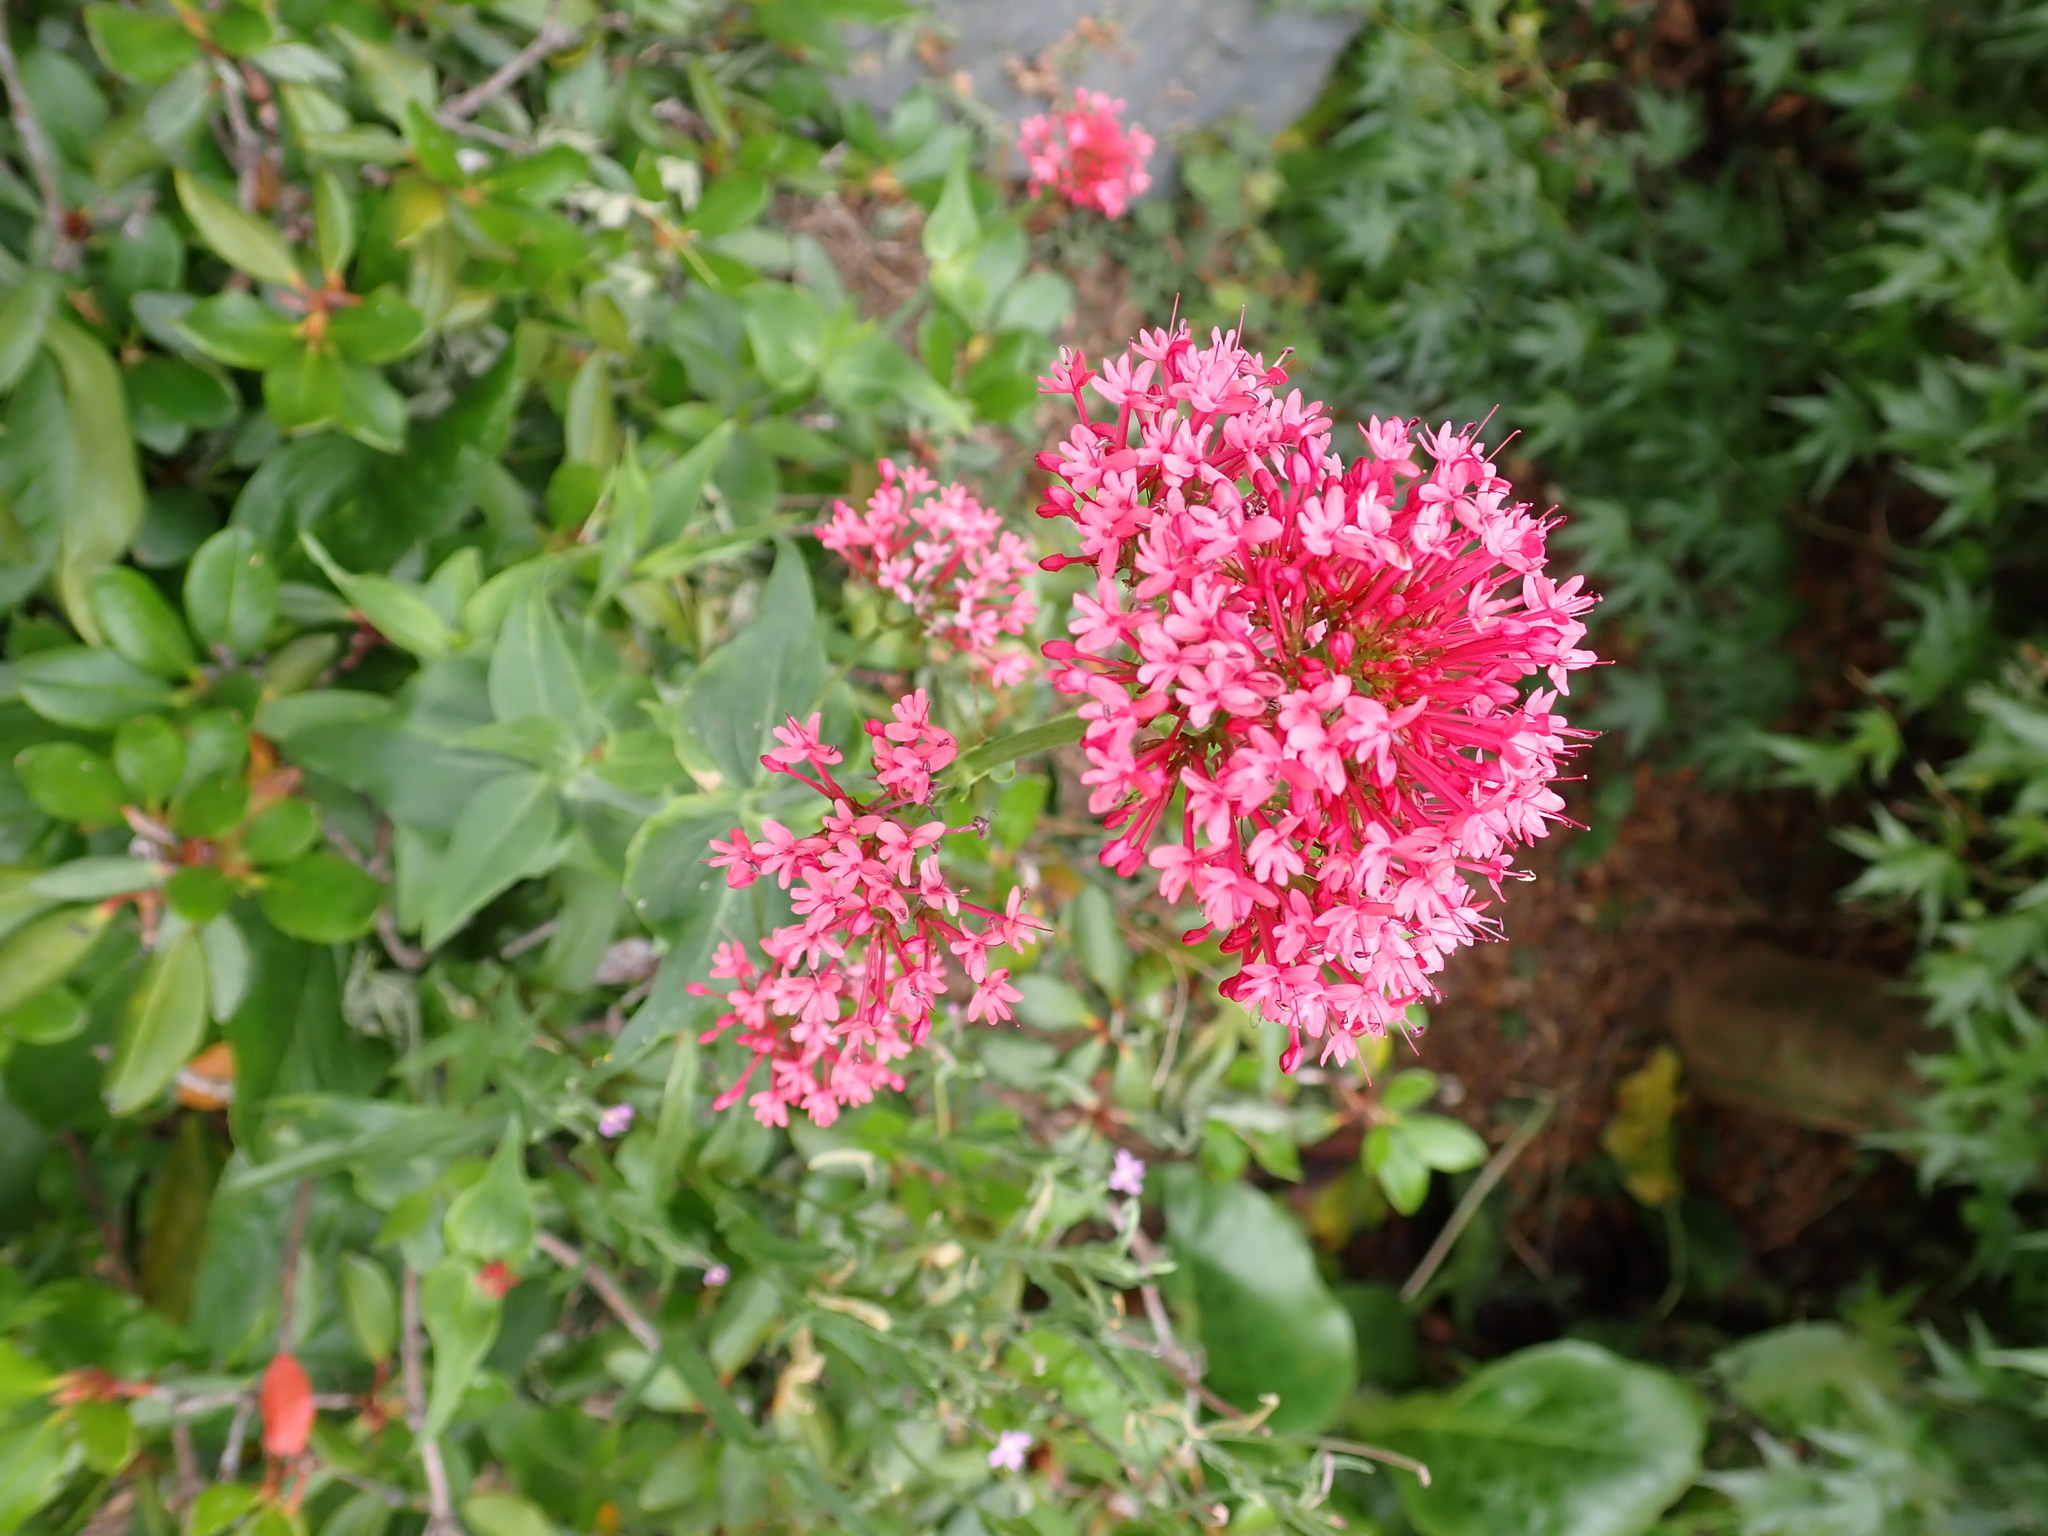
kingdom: Plantae
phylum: Tracheophyta
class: Magnoliopsida
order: Dipsacales
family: Caprifoliaceae
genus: Centranthus
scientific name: Centranthus ruber
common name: Red valerian
